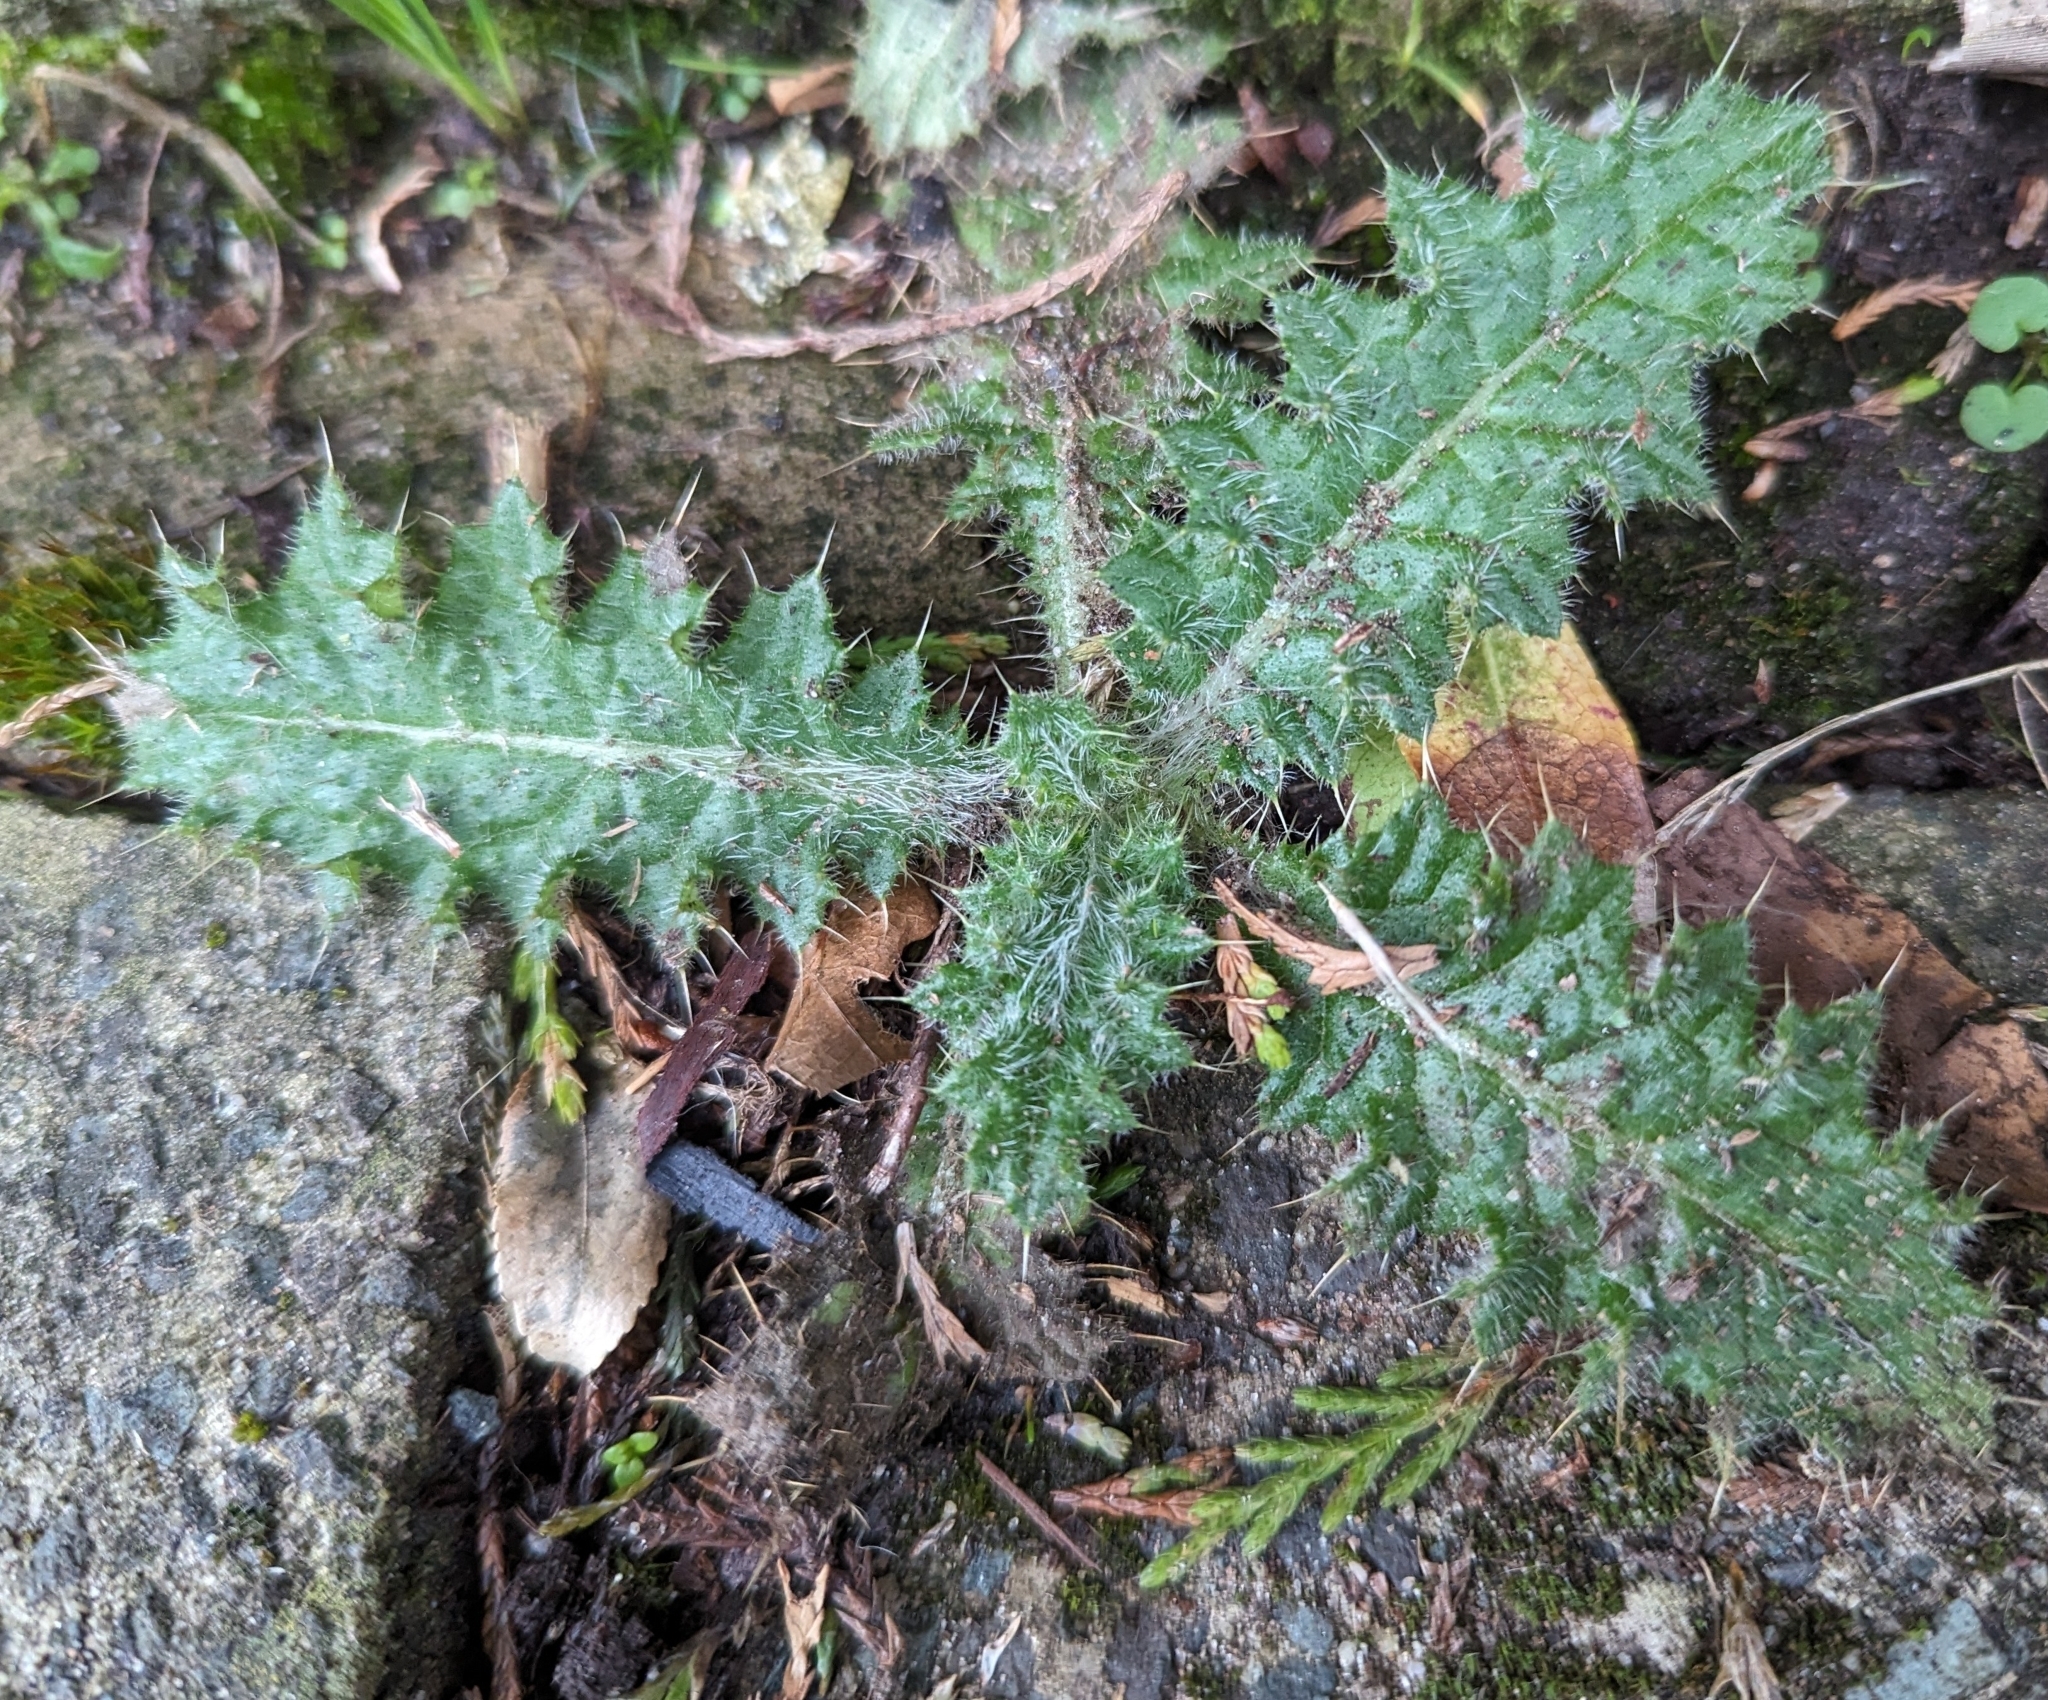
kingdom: Plantae
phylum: Tracheophyta
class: Magnoliopsida
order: Asterales
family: Asteraceae
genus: Cirsium
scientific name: Cirsium vulgare
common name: Bull thistle
